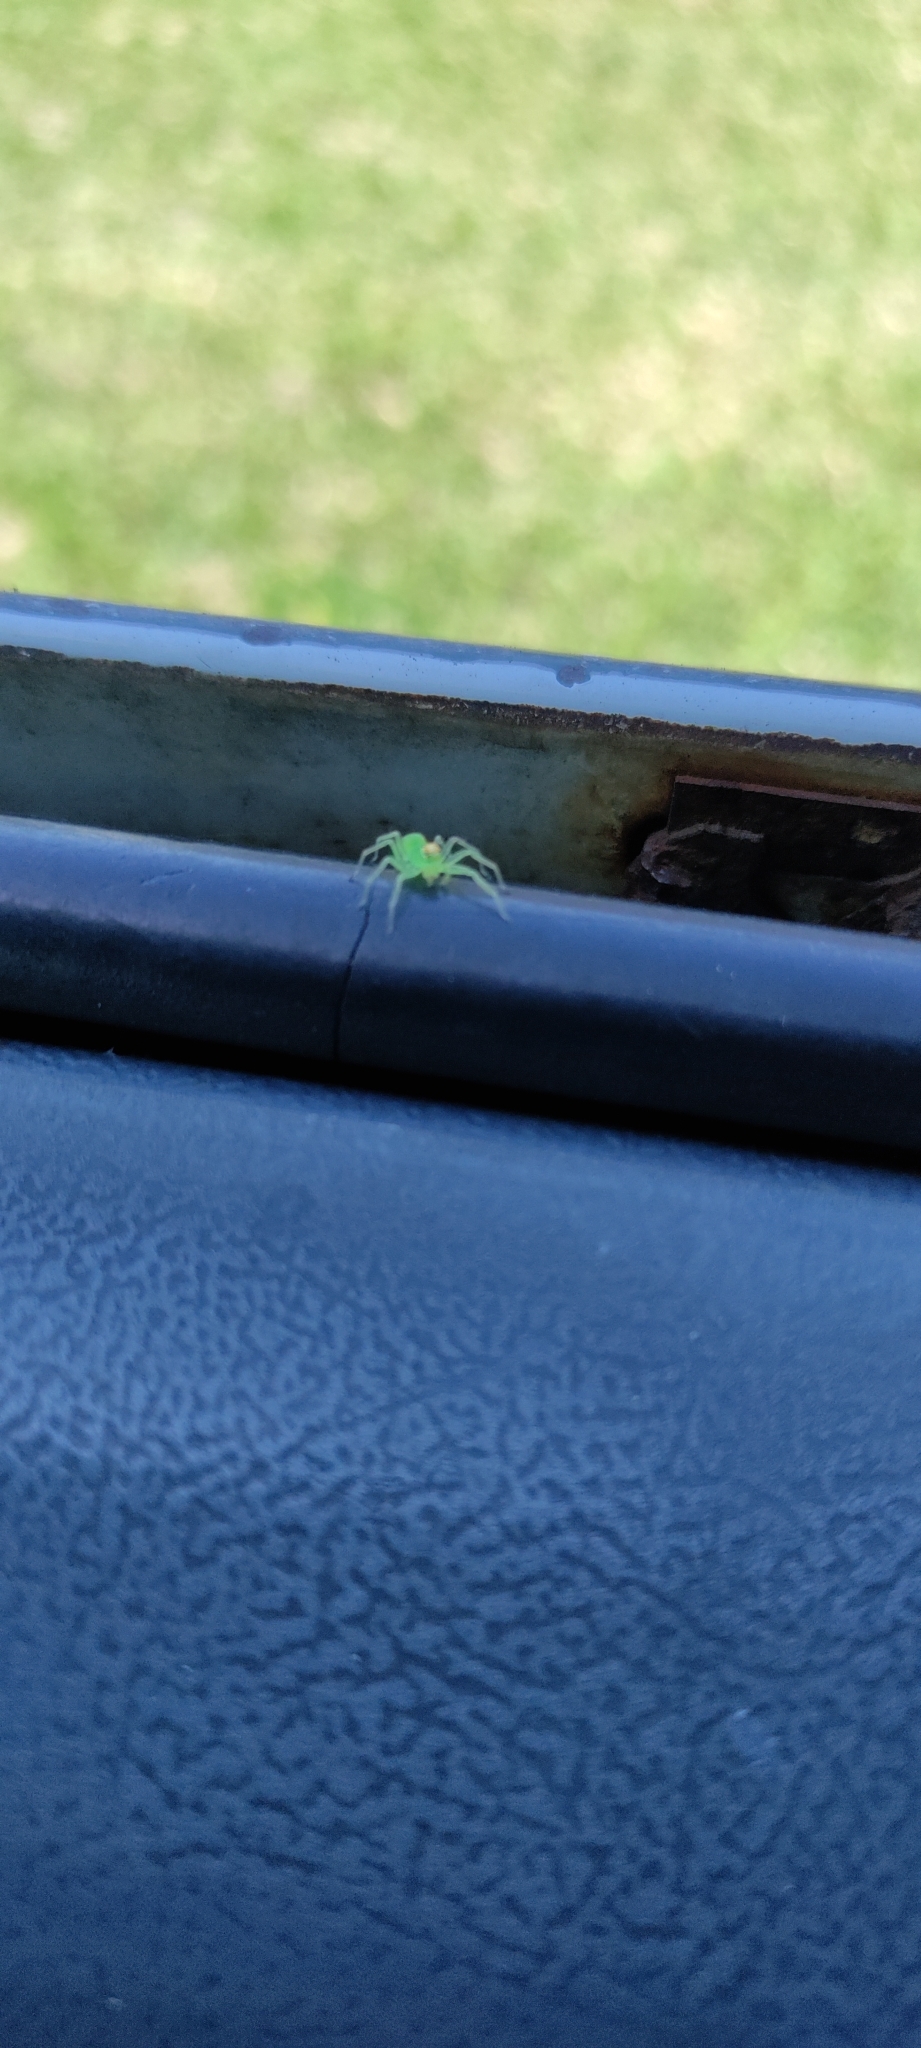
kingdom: Animalia
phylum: Arthropoda
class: Arachnida
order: Araneae
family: Salticidae
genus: Lyssomanes
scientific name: Lyssomanes viridis
